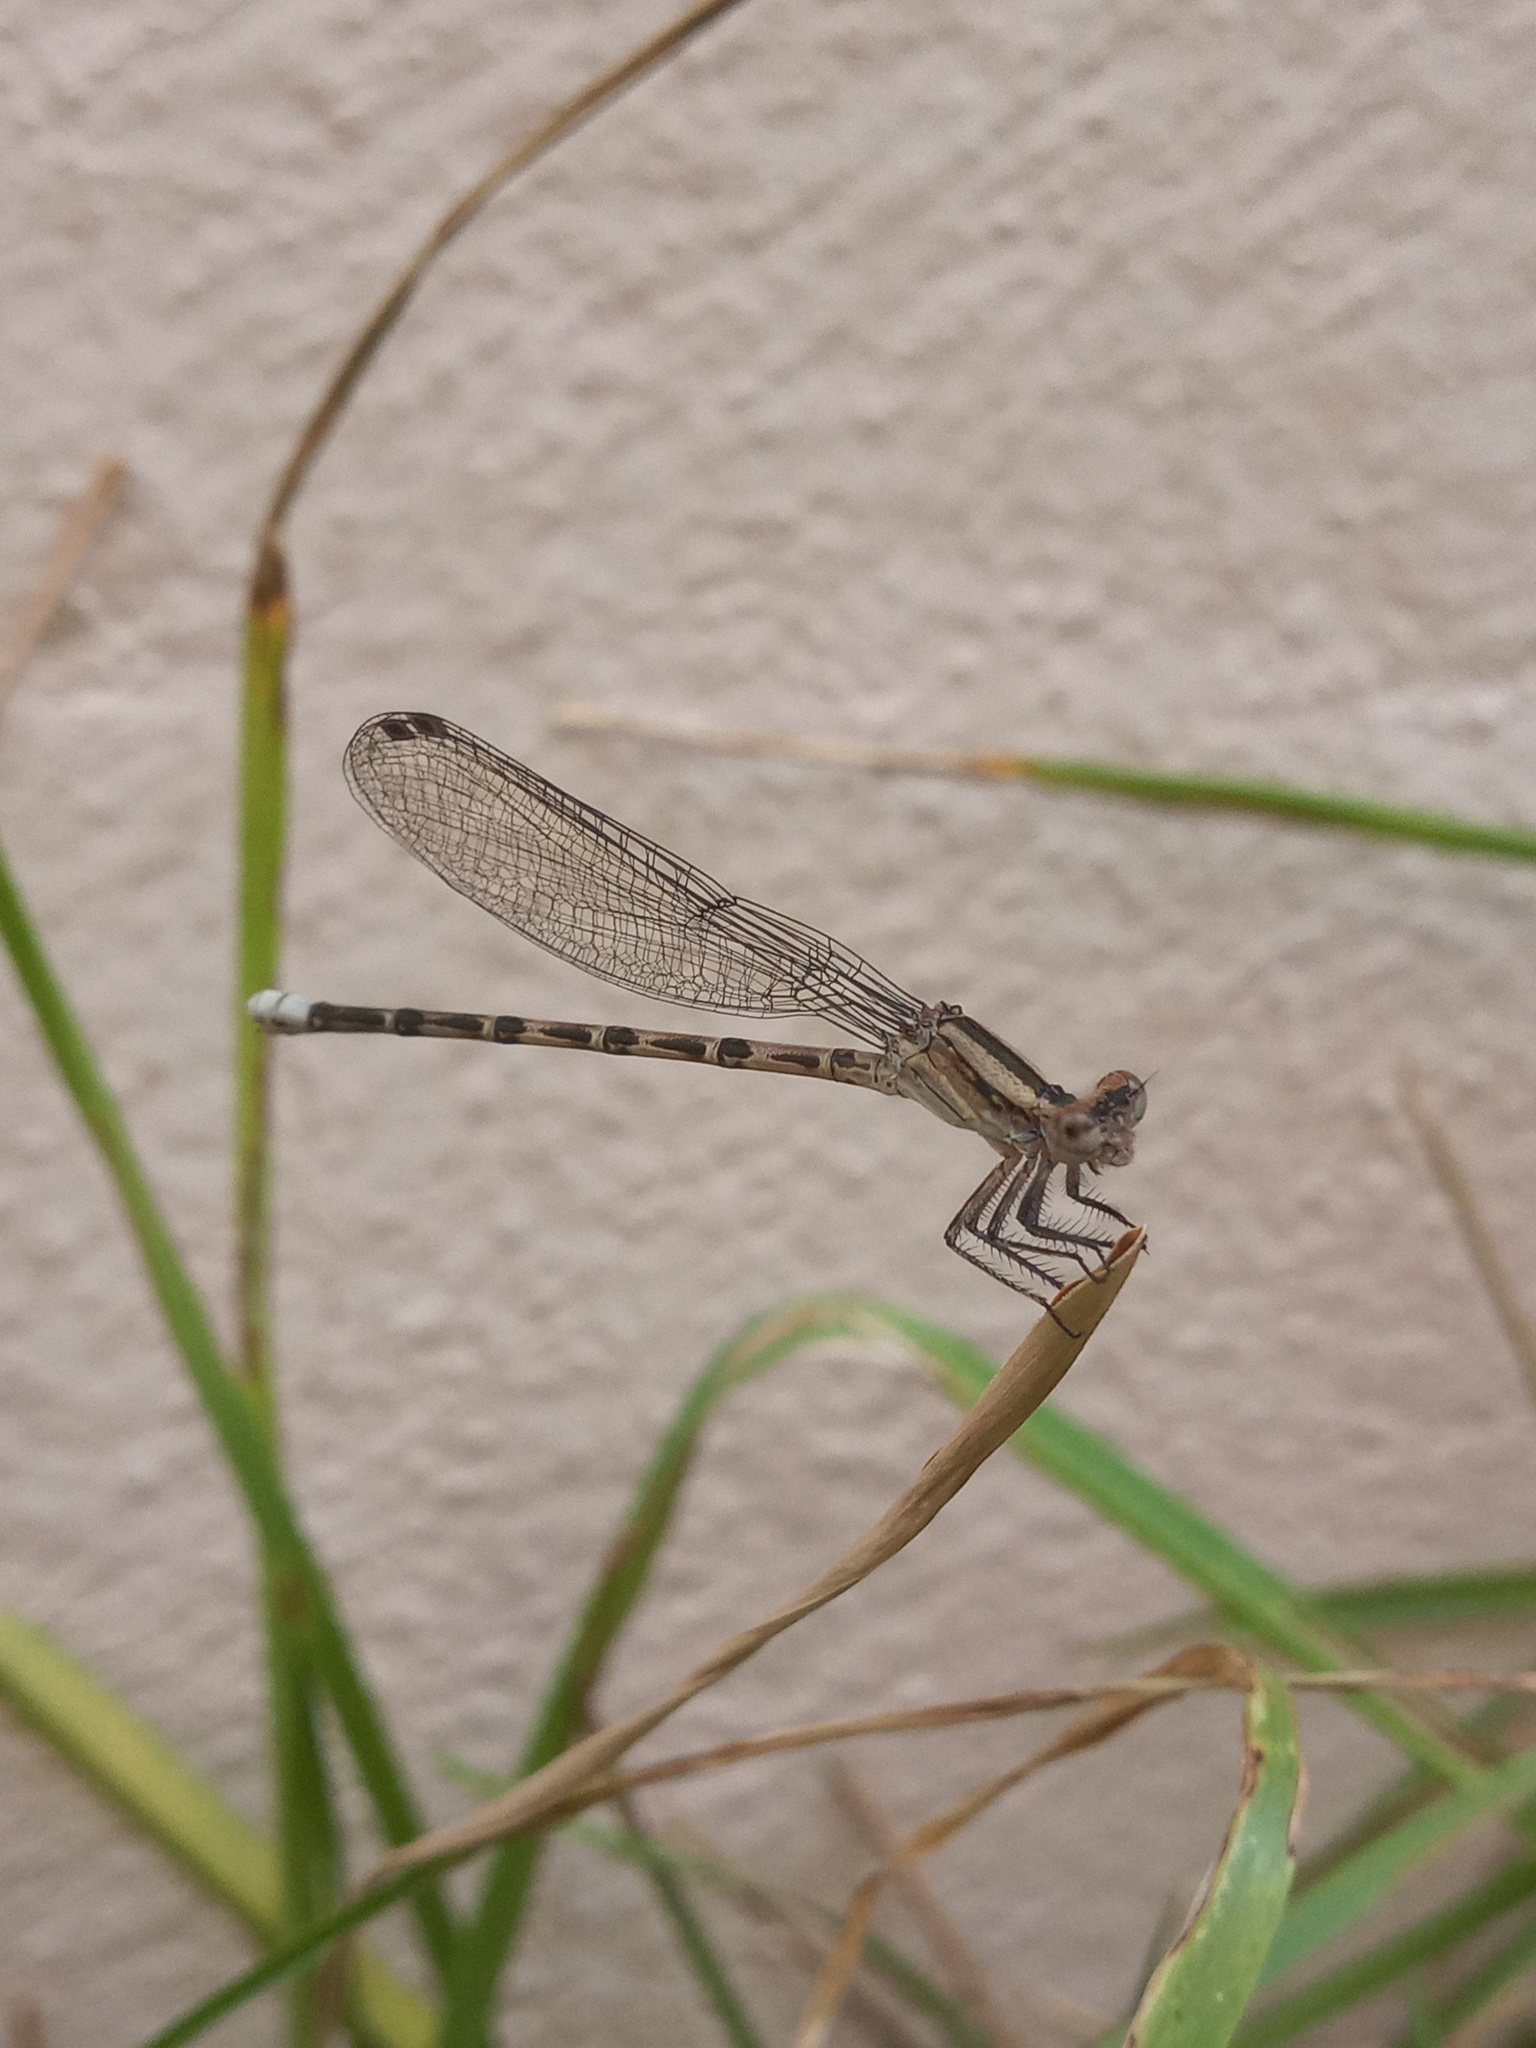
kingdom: Animalia
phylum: Arthropoda
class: Insecta
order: Odonata
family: Coenagrionidae
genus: Argia
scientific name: Argia immunda
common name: Kiowa dancer
